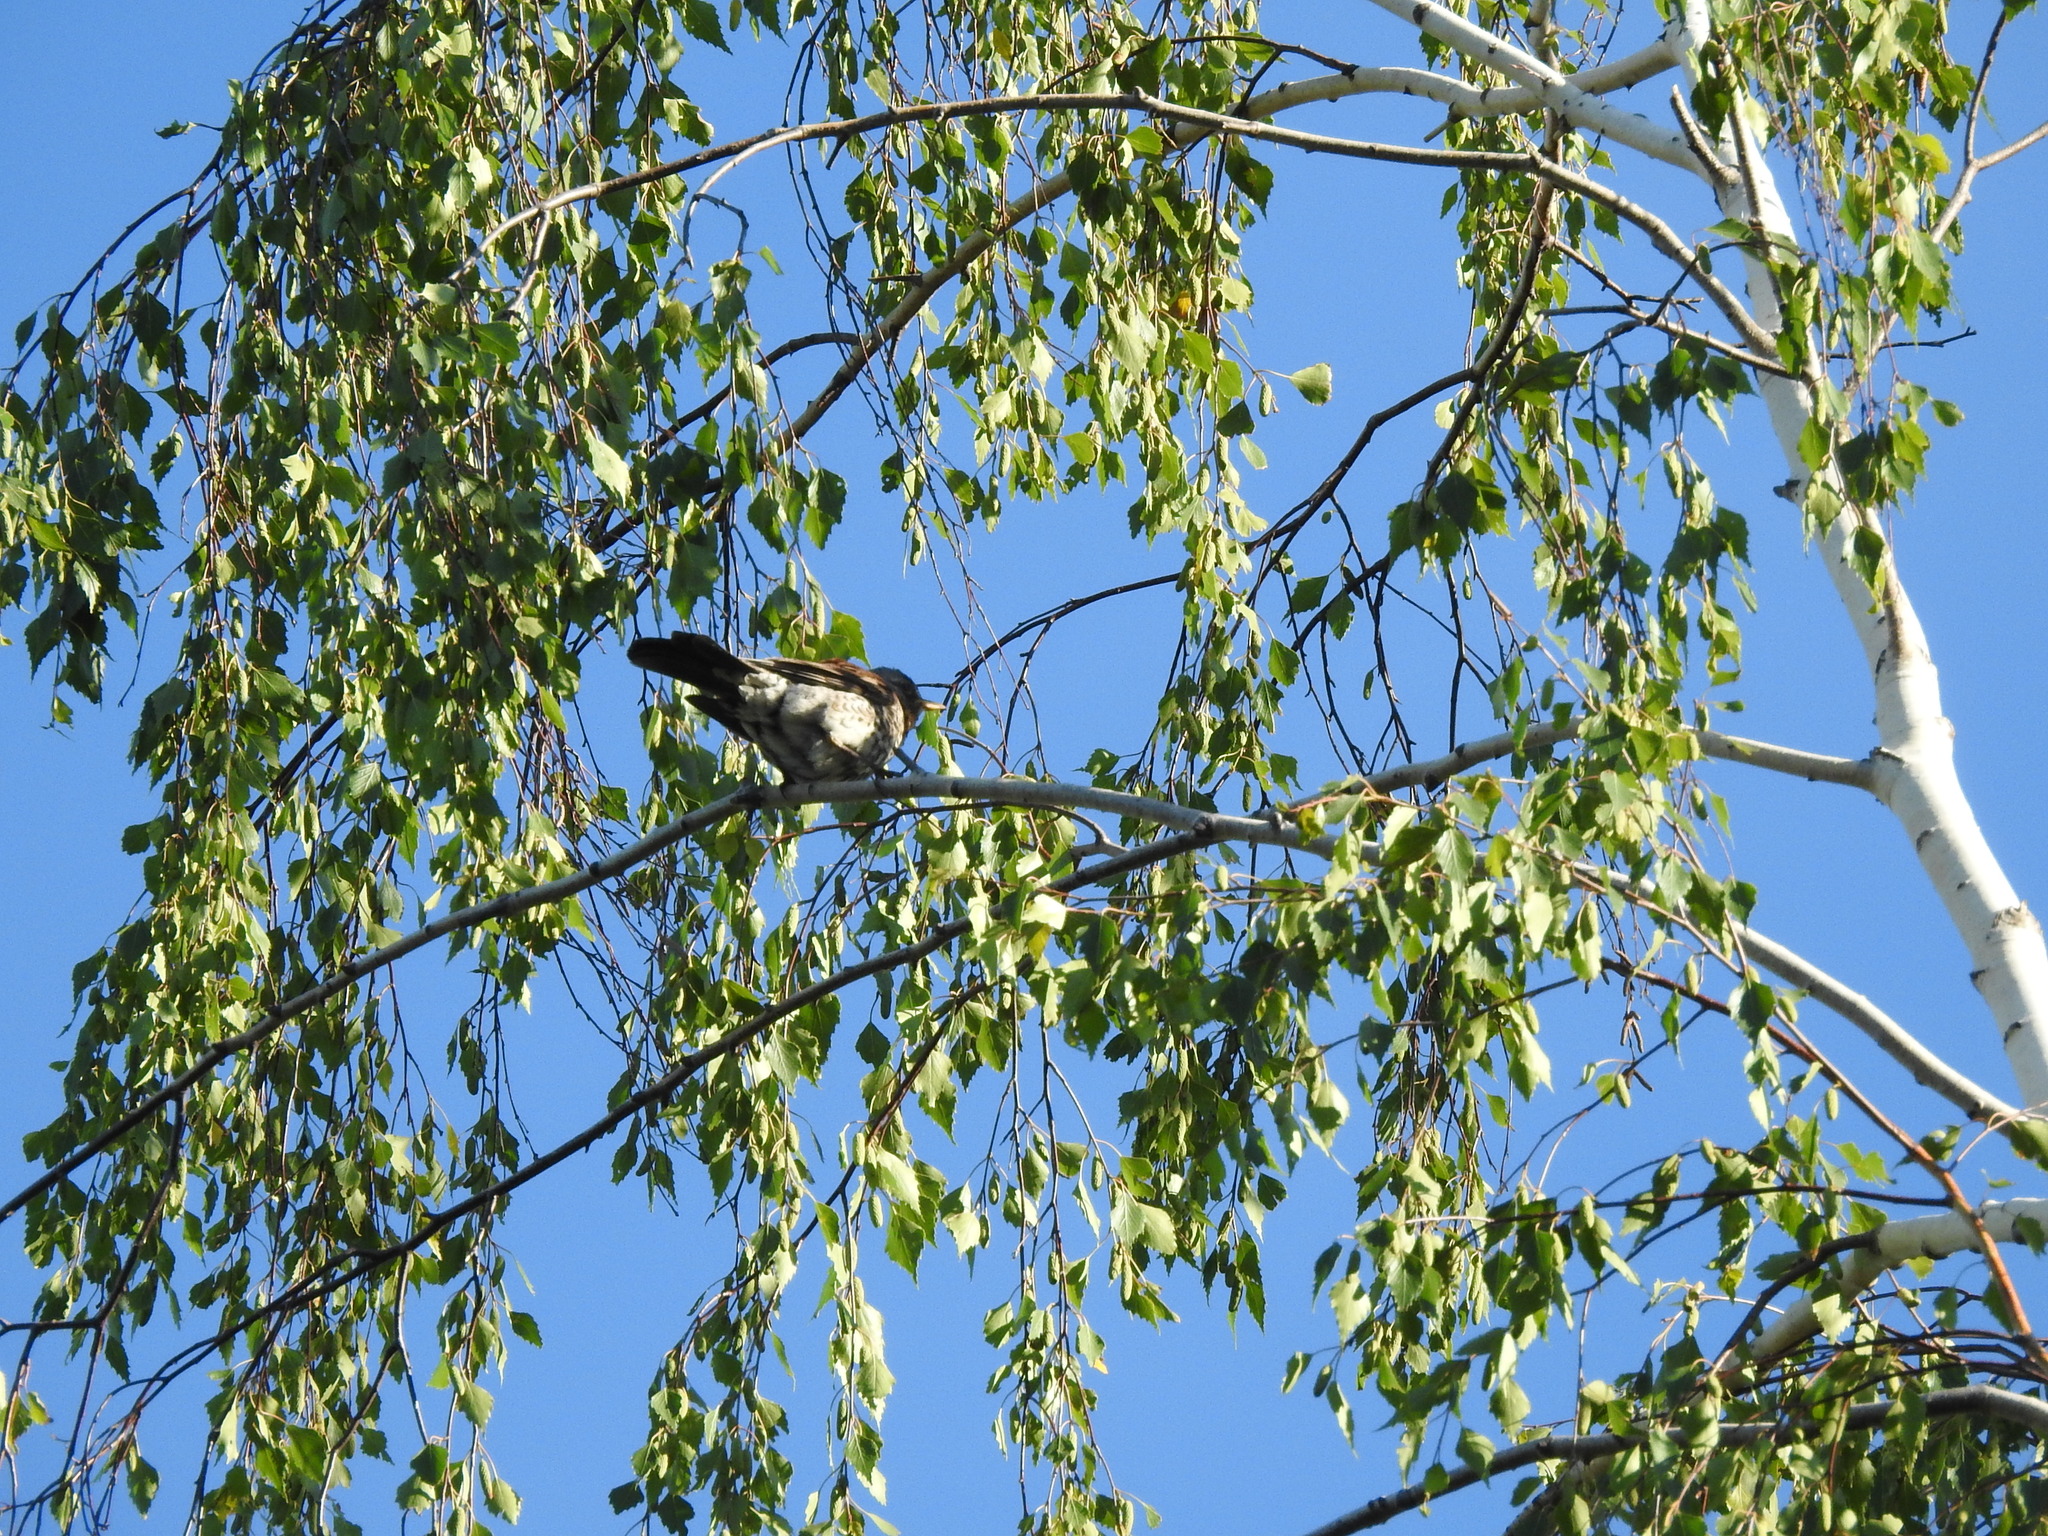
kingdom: Animalia
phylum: Chordata
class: Aves
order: Passeriformes
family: Turdidae
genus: Turdus
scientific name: Turdus pilaris
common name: Fieldfare
